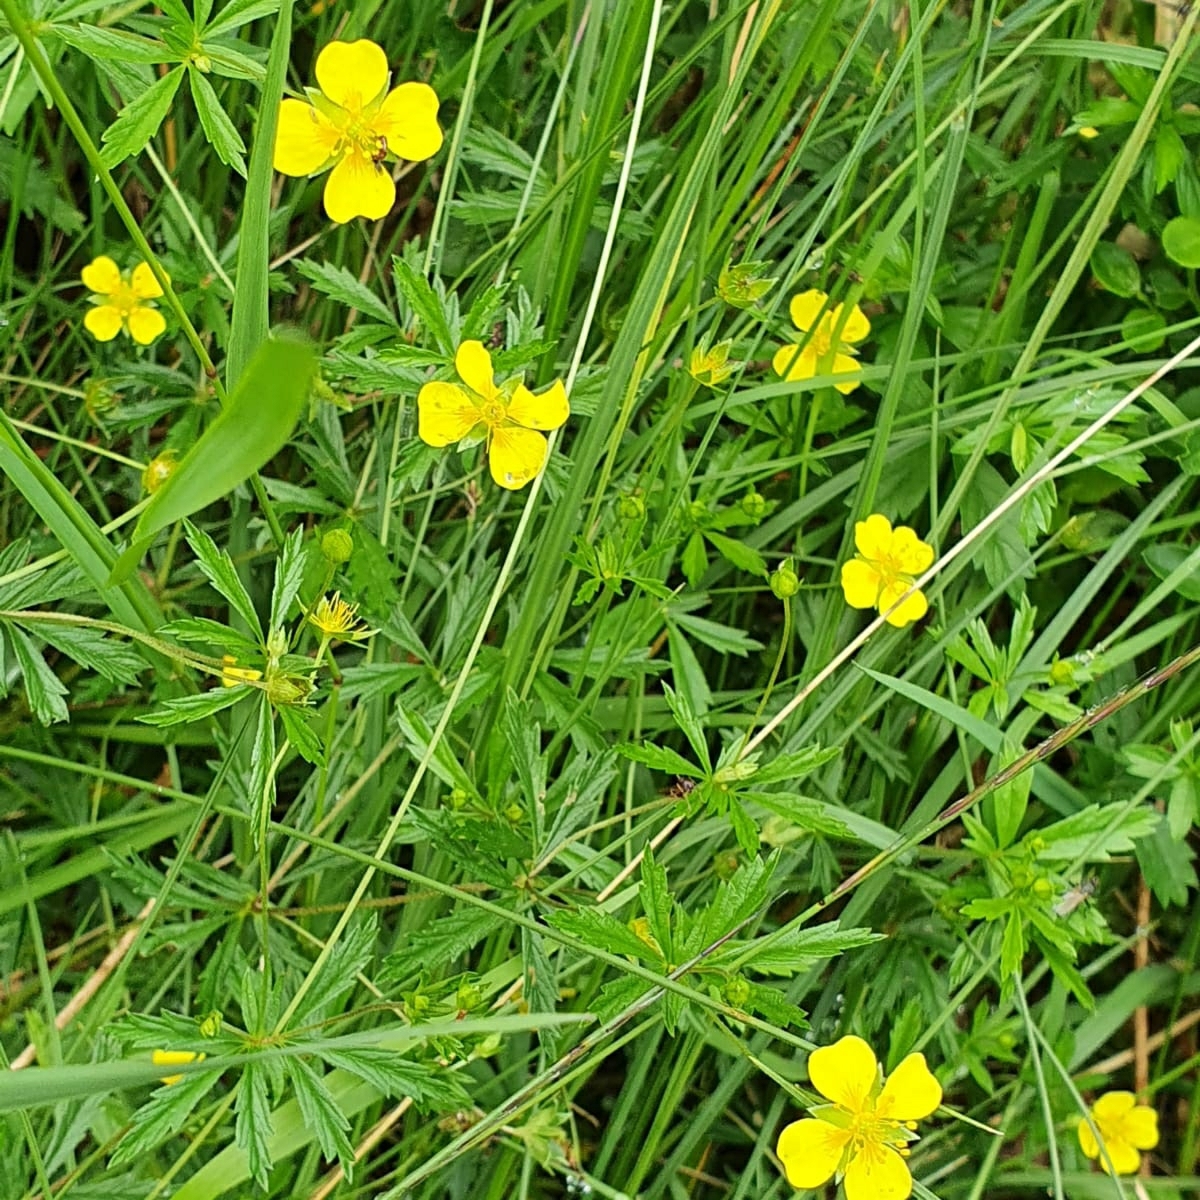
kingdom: Plantae
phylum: Tracheophyta
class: Magnoliopsida
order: Rosales
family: Rosaceae
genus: Potentilla
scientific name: Potentilla erecta
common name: Tormentil
